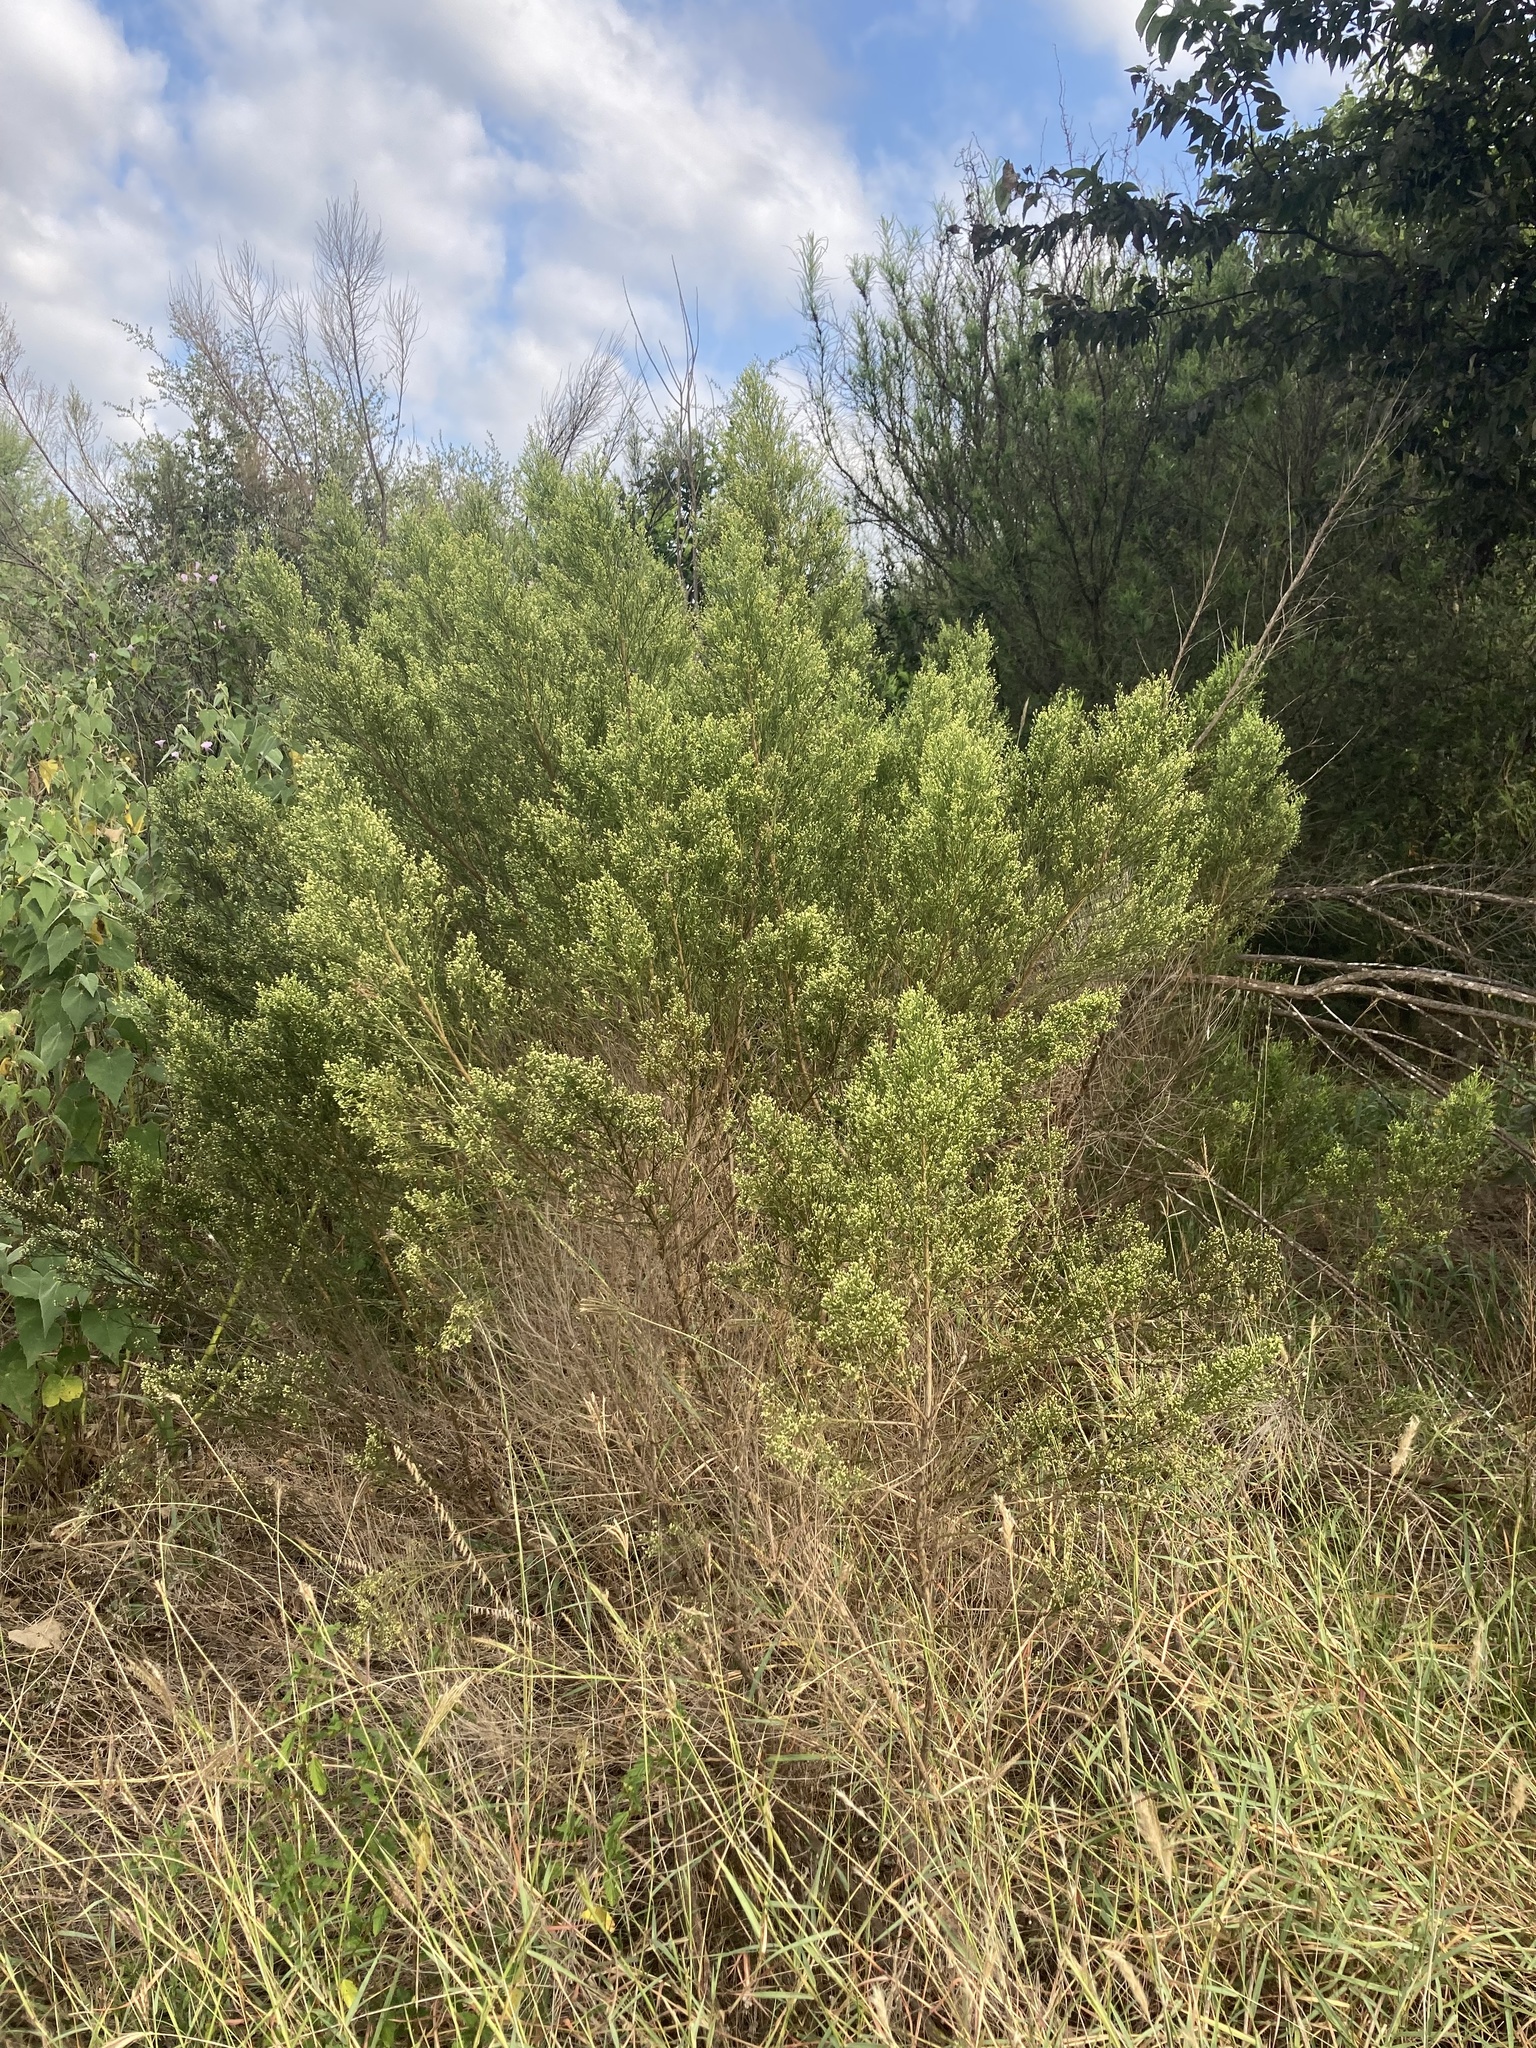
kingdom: Plantae
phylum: Tracheophyta
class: Magnoliopsida
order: Asterales
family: Asteraceae
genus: Baccharis
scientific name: Baccharis neglecta
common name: Roosevelt-weed
